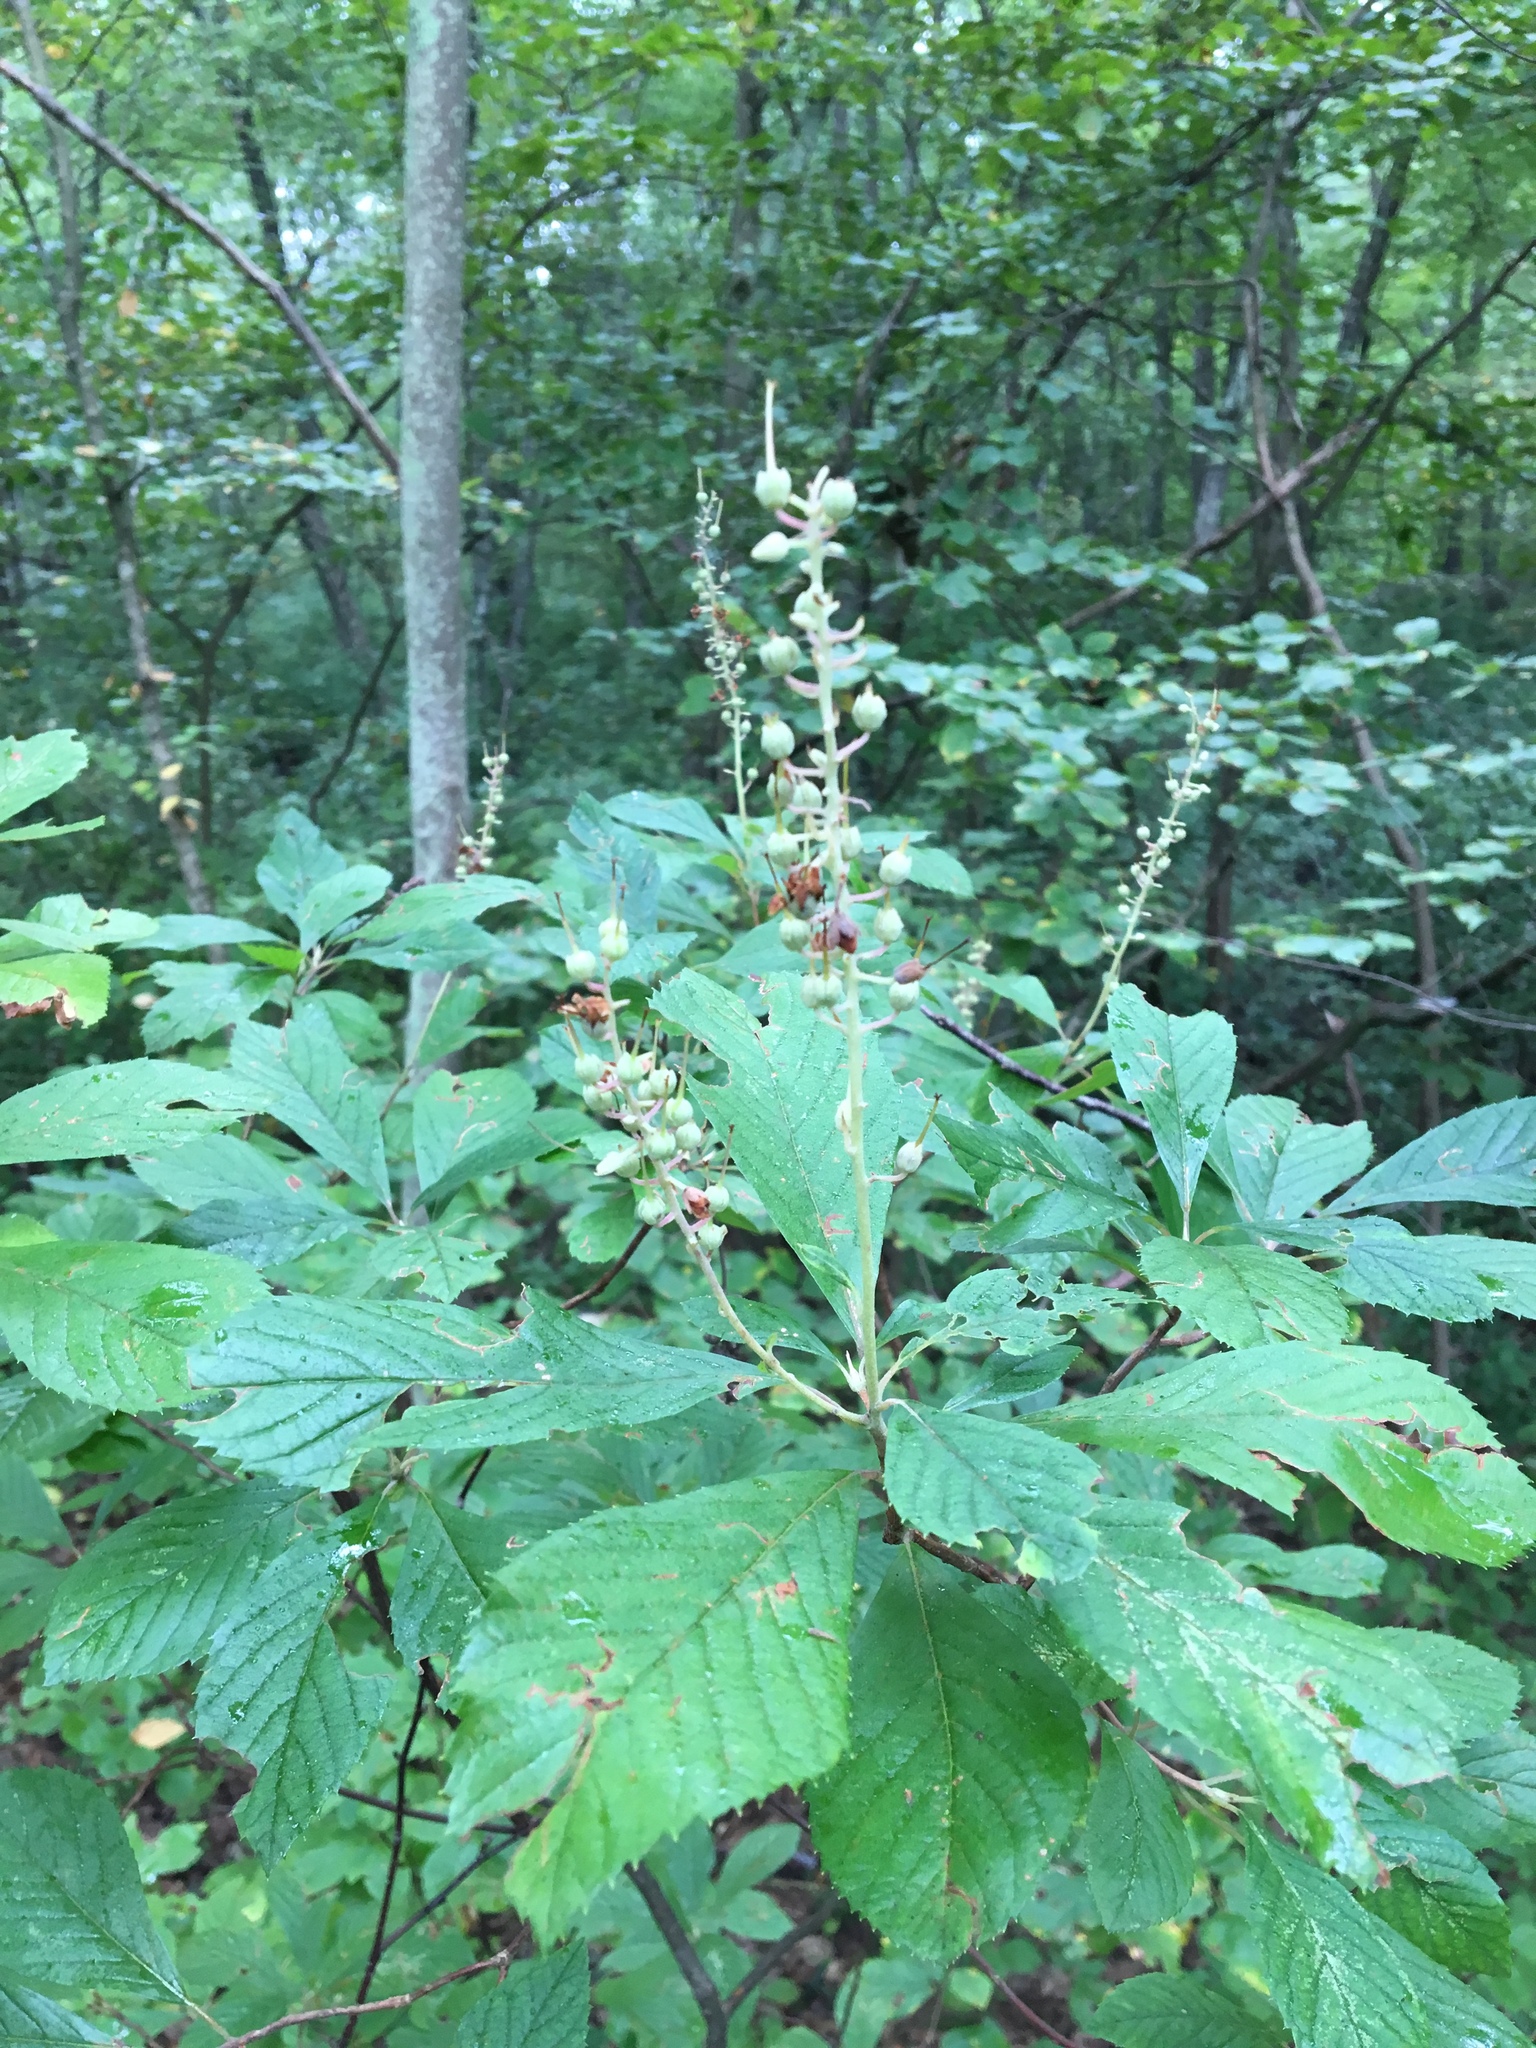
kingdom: Plantae
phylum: Tracheophyta
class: Magnoliopsida
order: Ericales
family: Clethraceae
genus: Clethra
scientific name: Clethra alnifolia
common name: Sweet pepperbush
